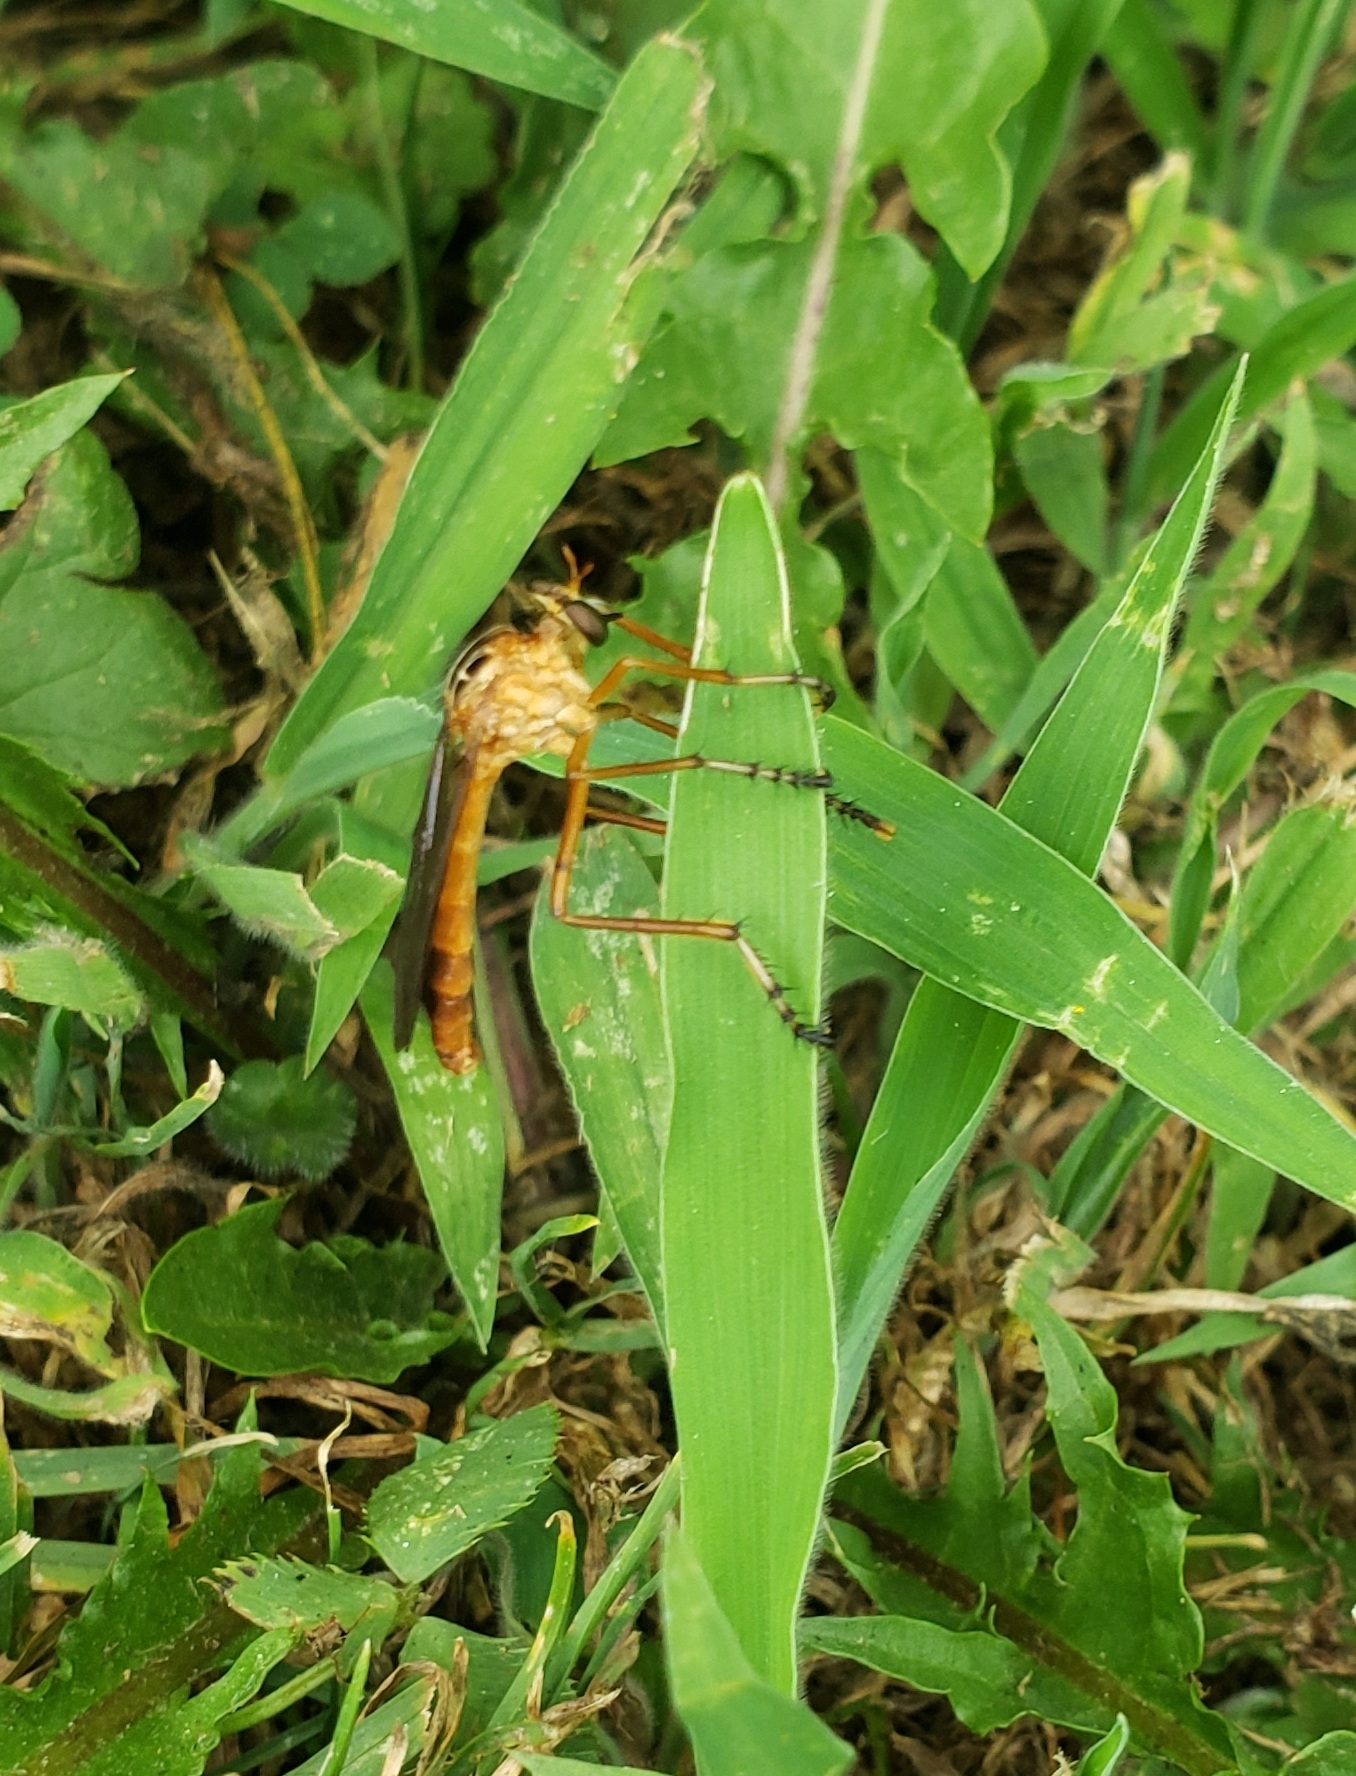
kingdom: Animalia
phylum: Arthropoda
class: Insecta
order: Diptera
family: Asilidae
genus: Diogmites
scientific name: Diogmites neoternatus
